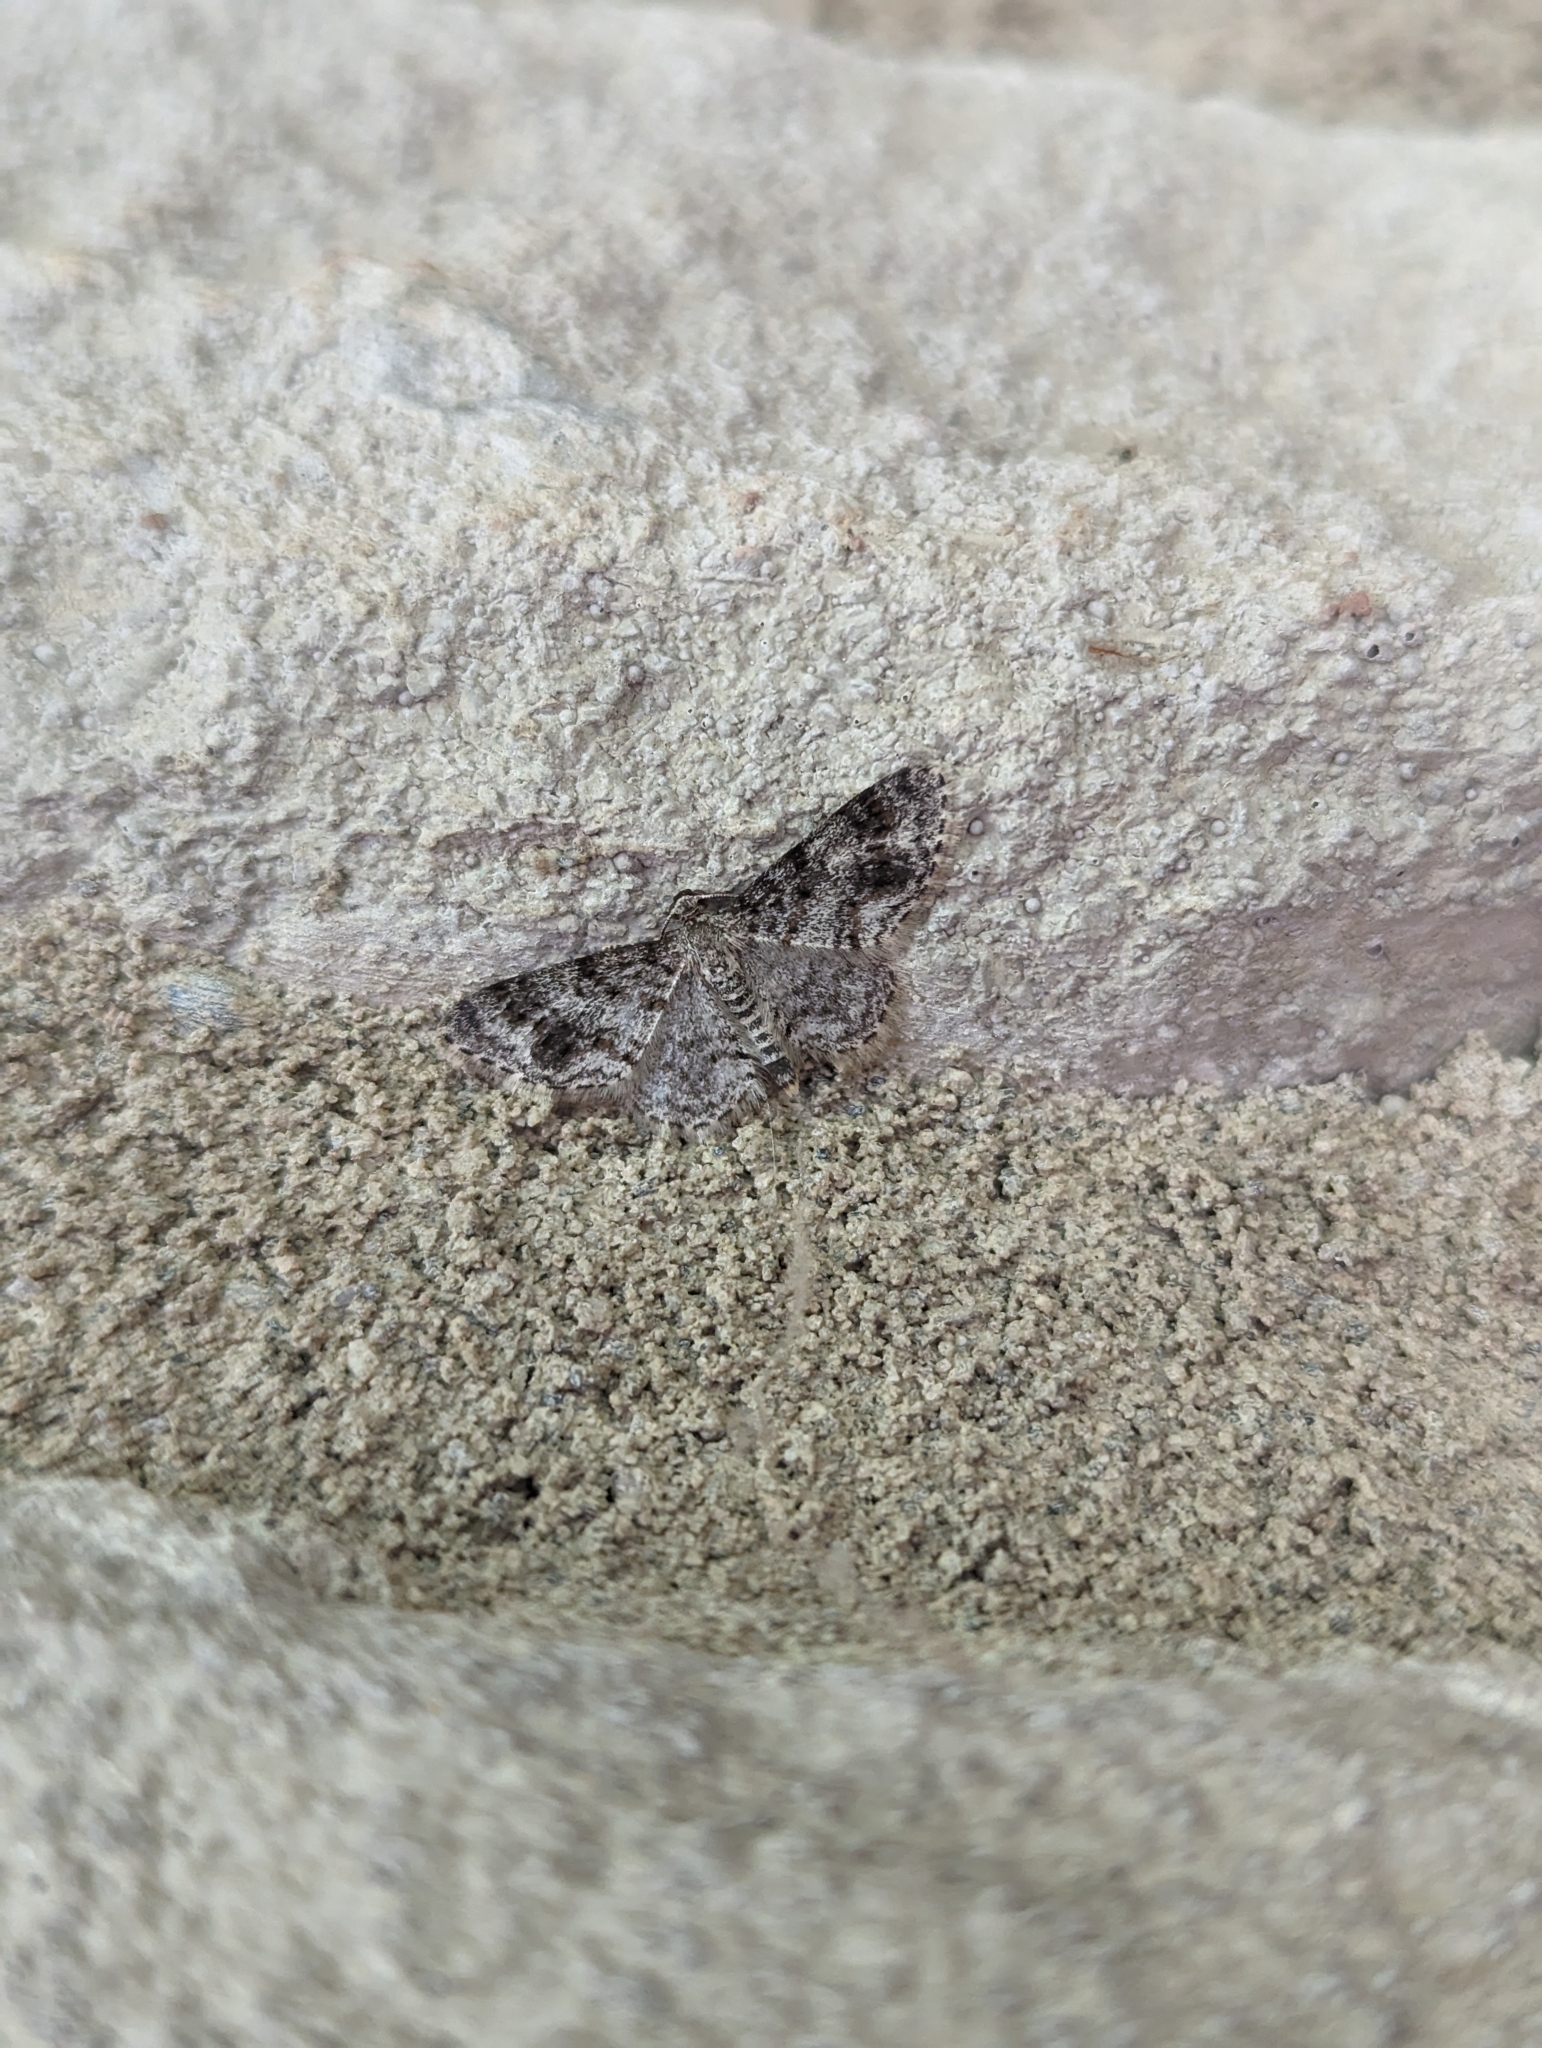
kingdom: Animalia
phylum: Arthropoda
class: Insecta
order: Lepidoptera
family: Geometridae
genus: Hydrelia
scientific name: Hydrelia inornata
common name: Unadorned carpet moth
